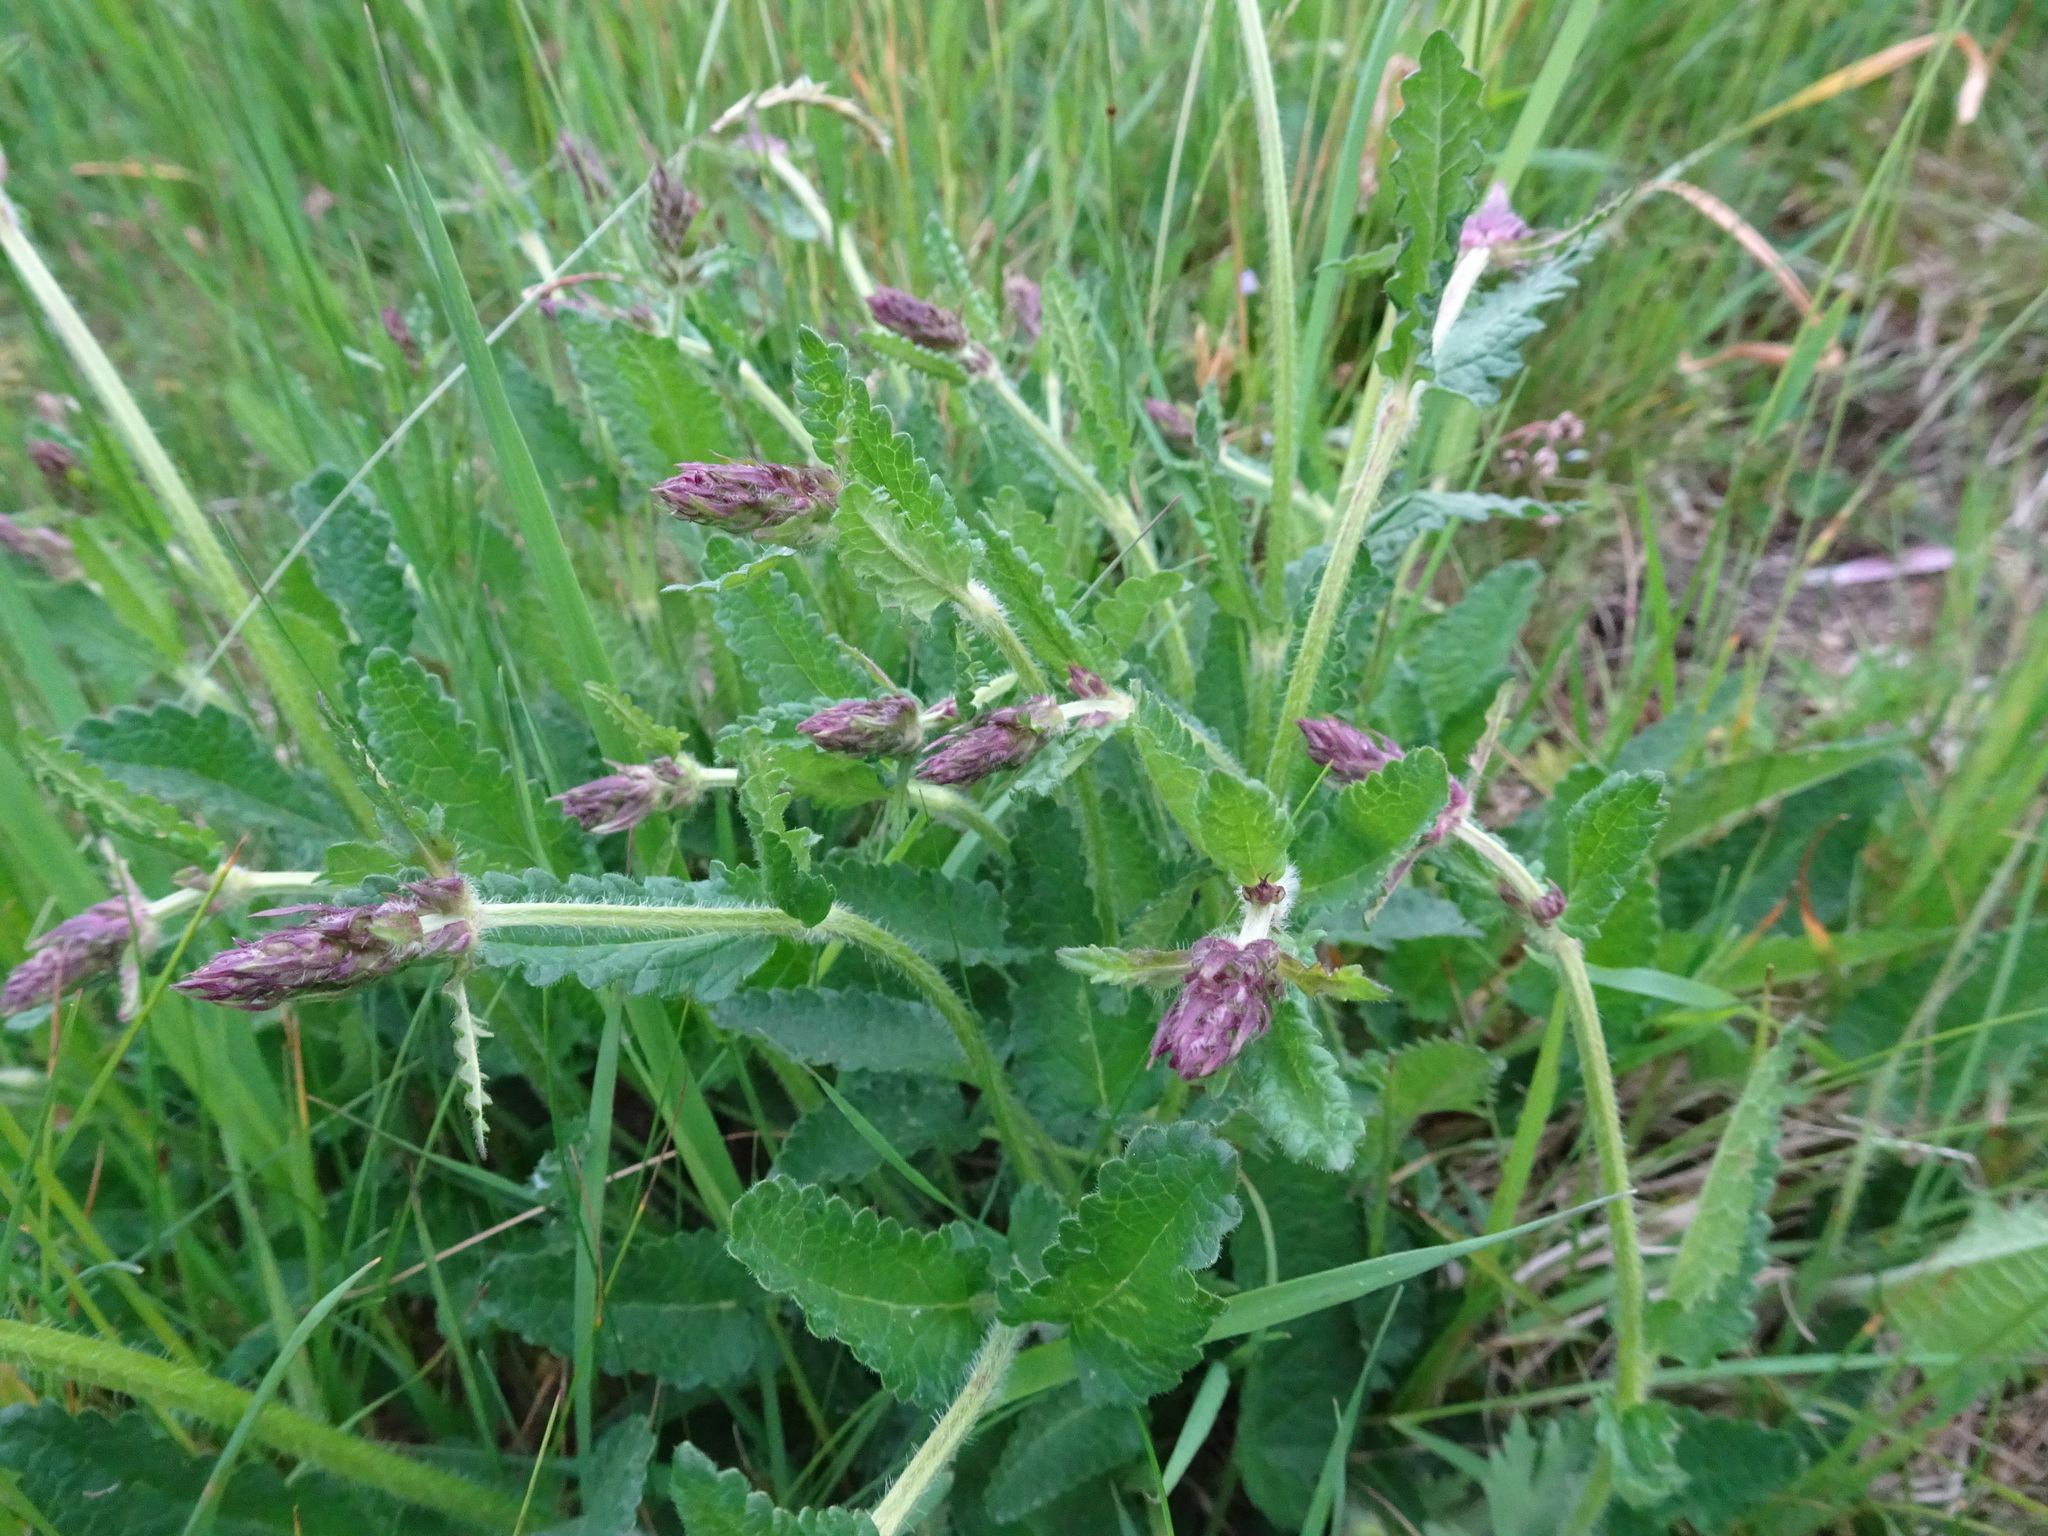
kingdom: Plantae
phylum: Tracheophyta
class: Magnoliopsida
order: Lamiales
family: Lamiaceae
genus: Betonica
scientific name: Betonica officinalis
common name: Bishop's-wort
